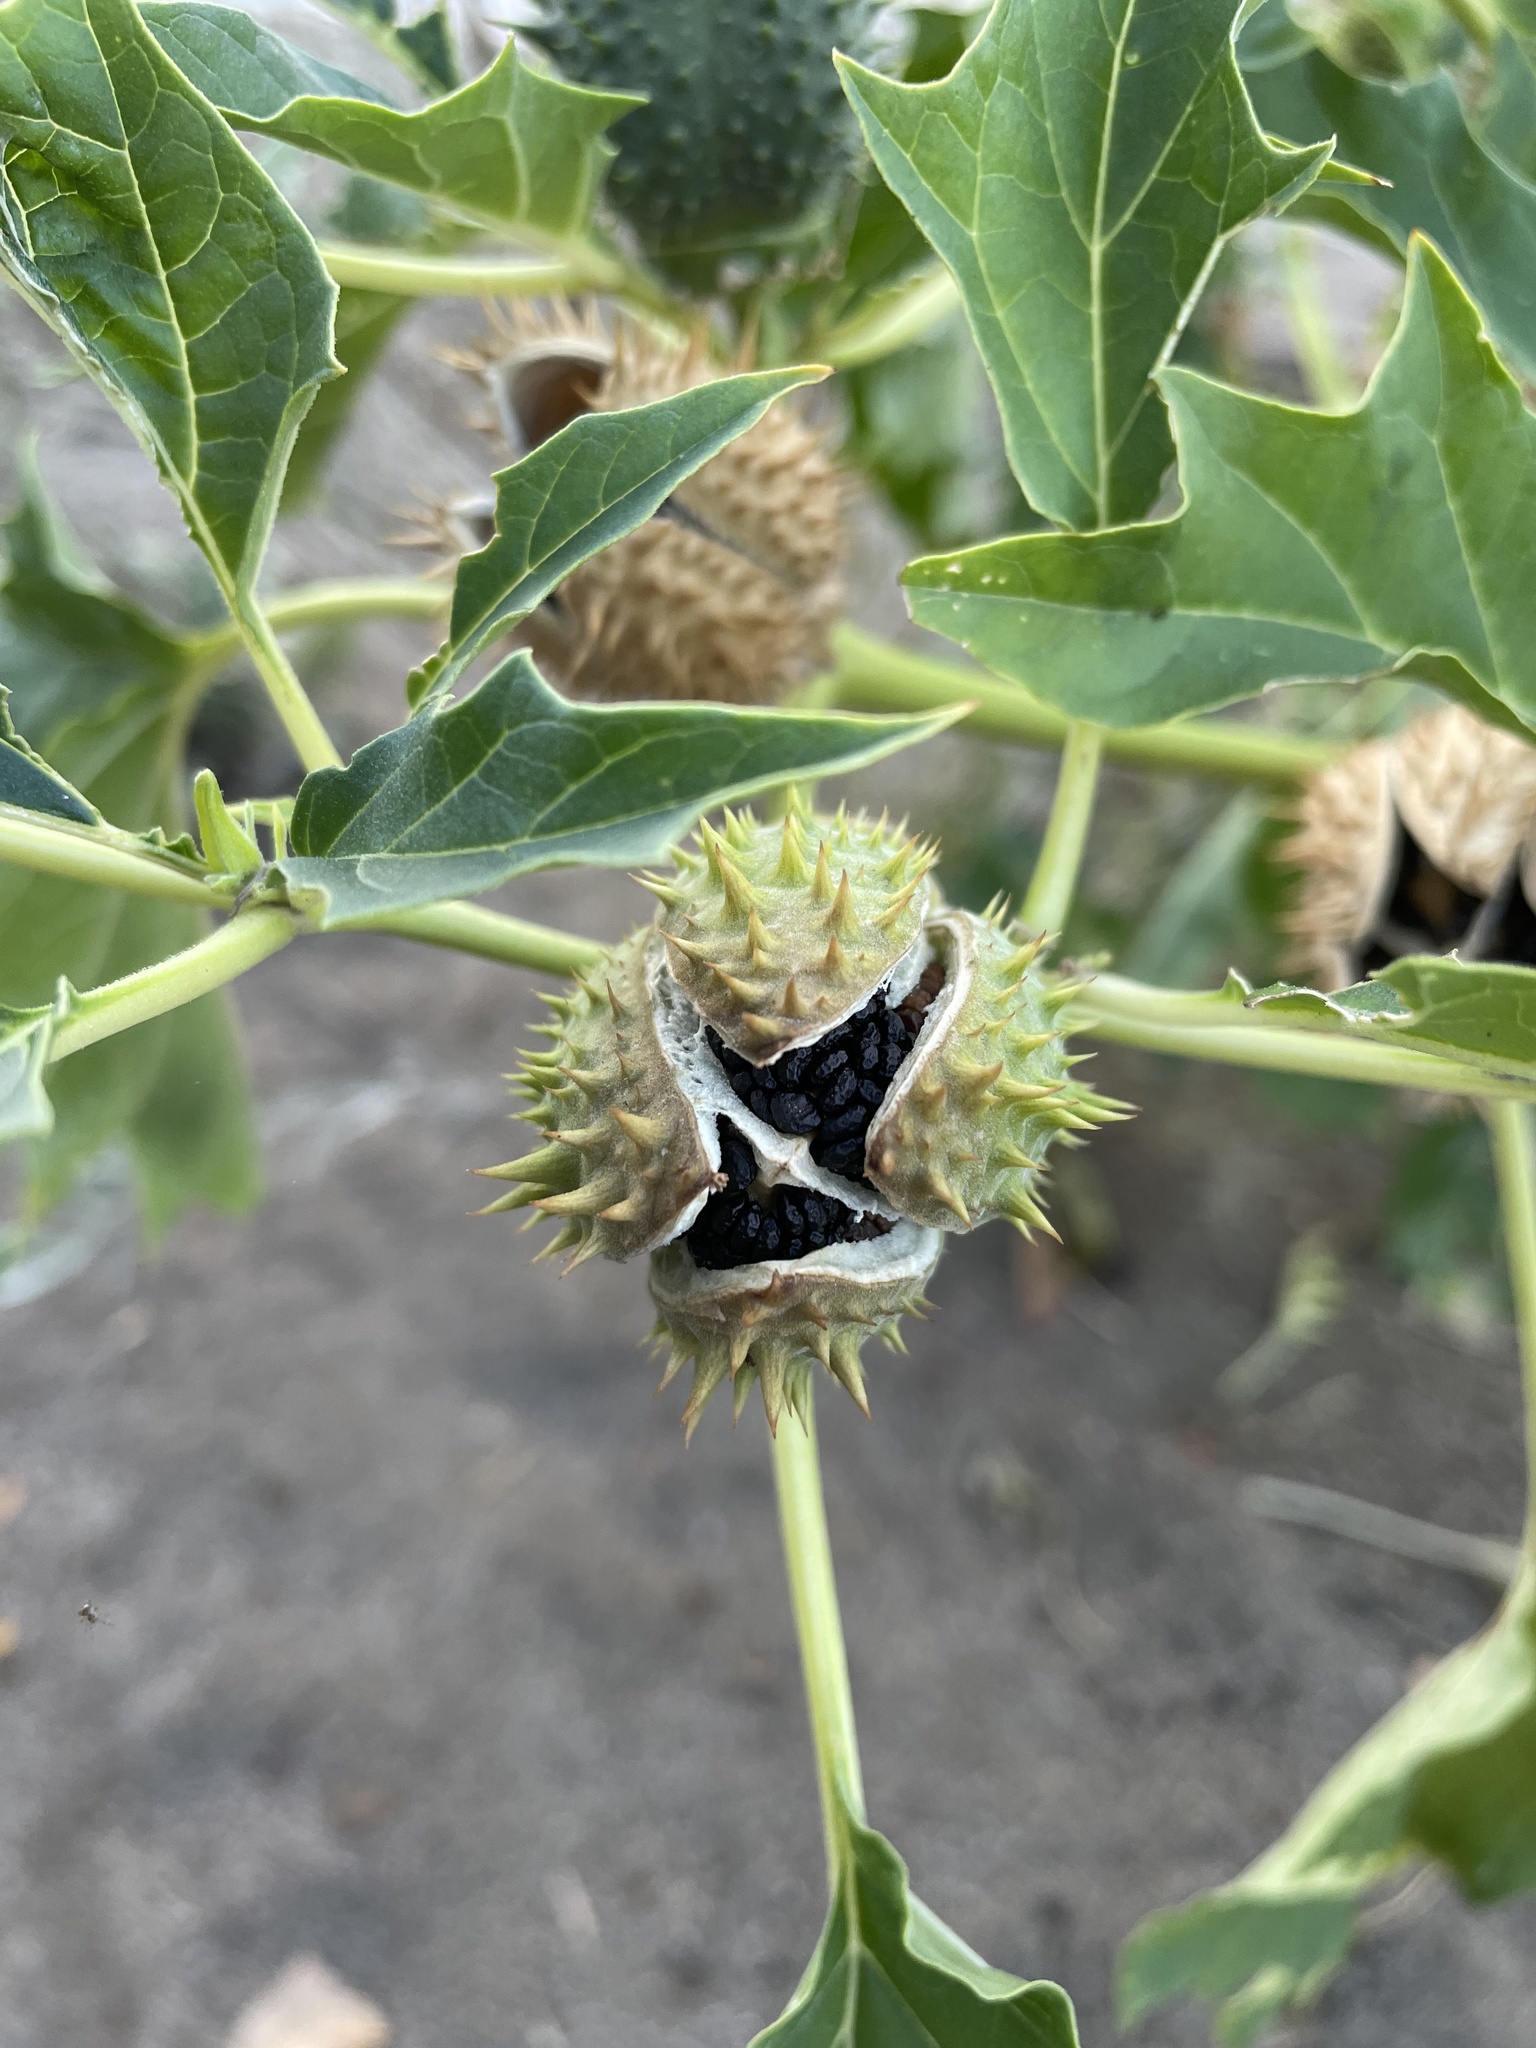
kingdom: Plantae
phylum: Tracheophyta
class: Magnoliopsida
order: Solanales
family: Solanaceae
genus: Datura
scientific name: Datura stramonium
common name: Thorn-apple
